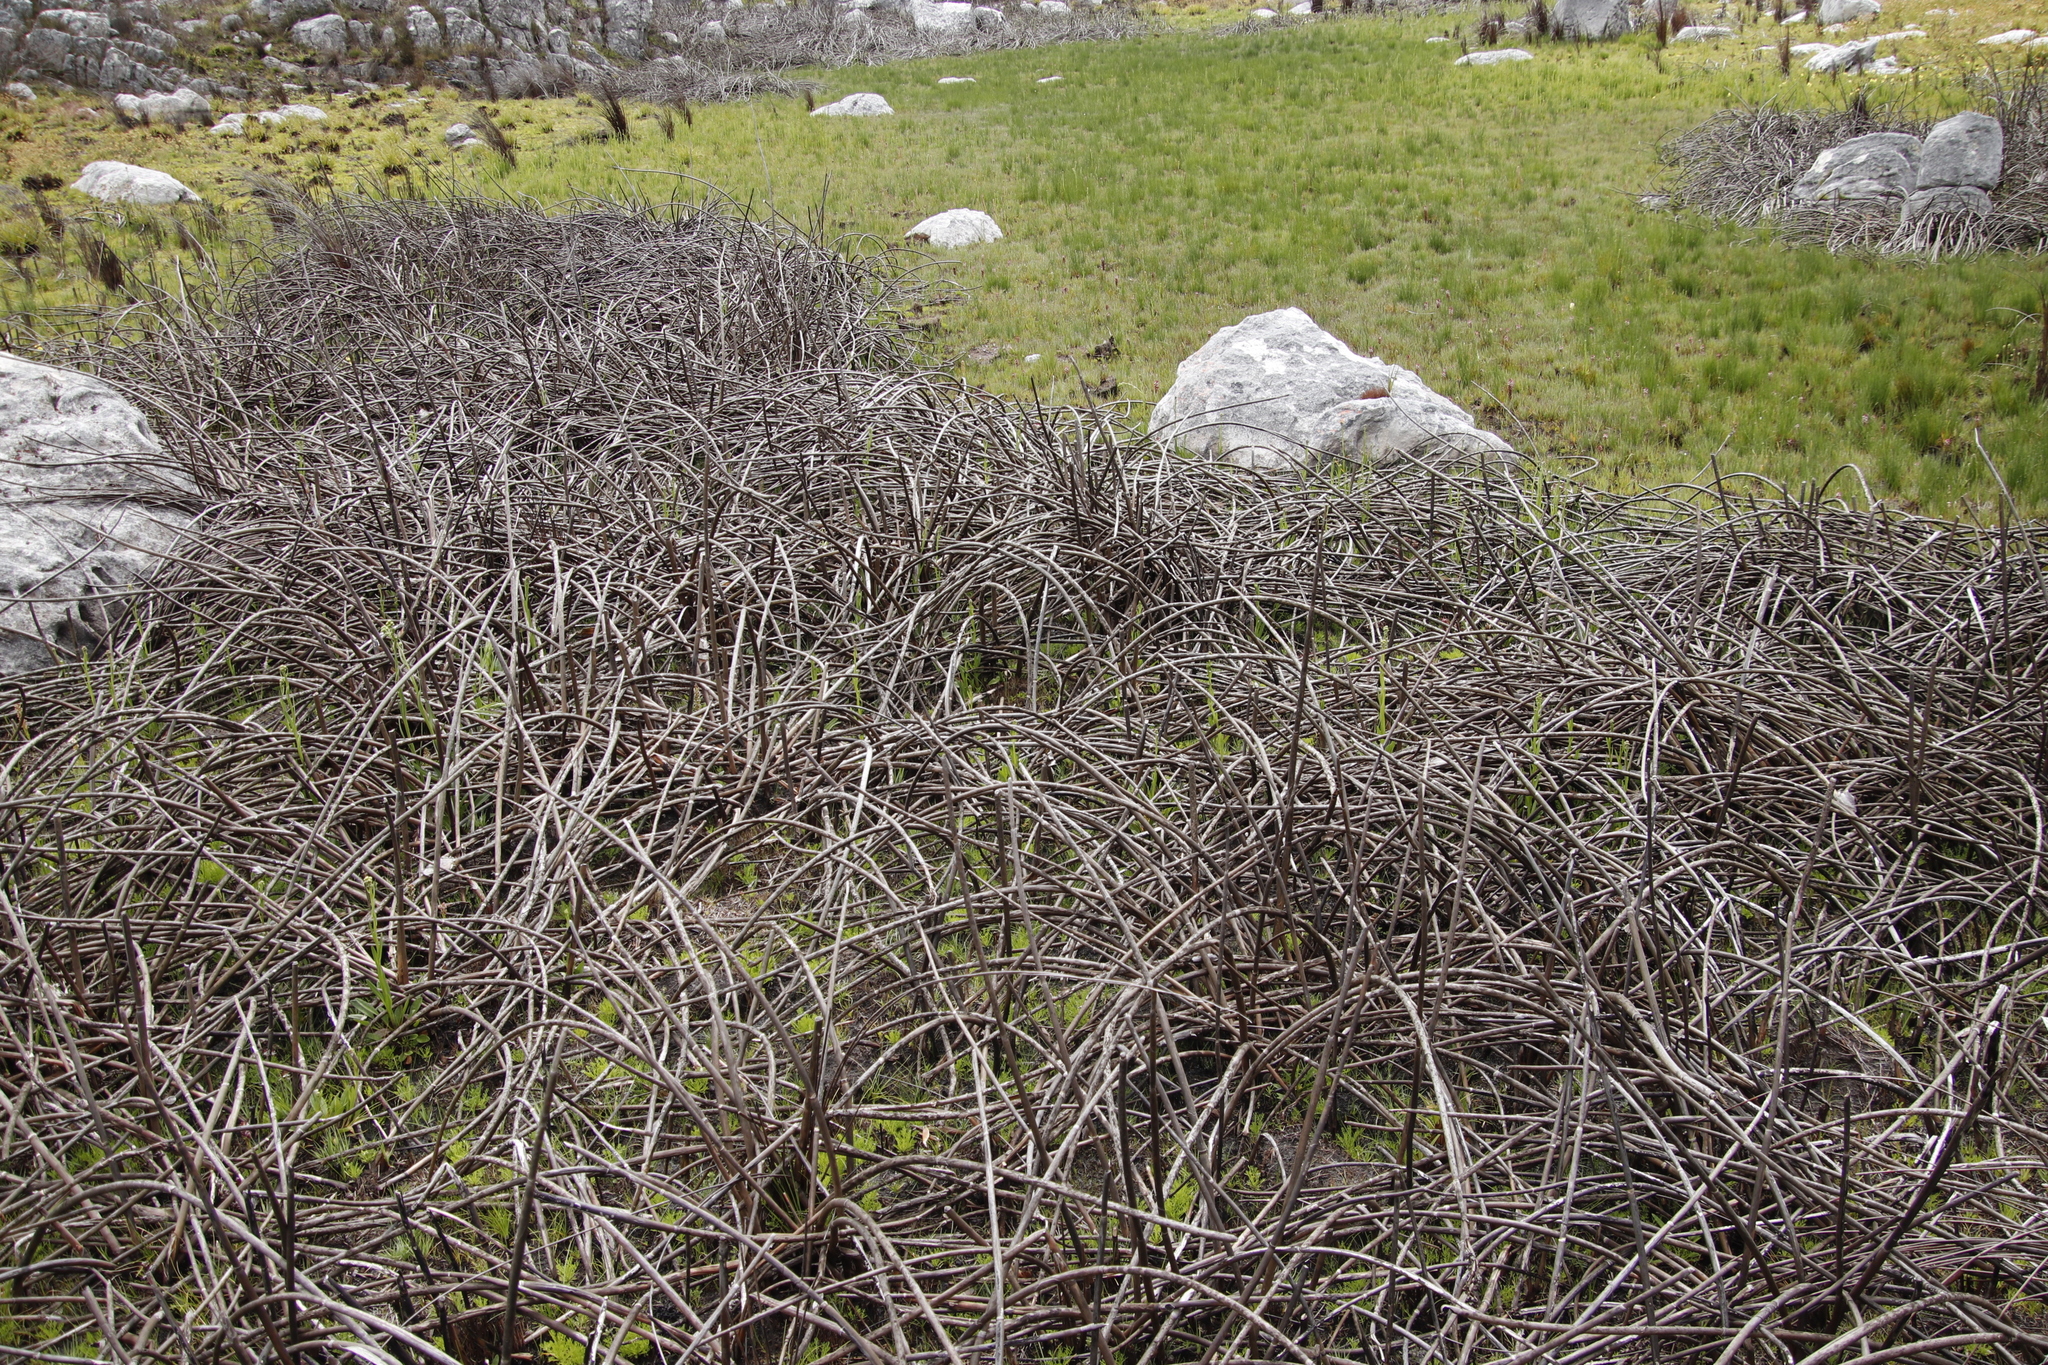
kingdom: Plantae
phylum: Tracheophyta
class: Liliopsida
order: Poales
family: Restionaceae
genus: Elegia
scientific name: Elegia mucronata
